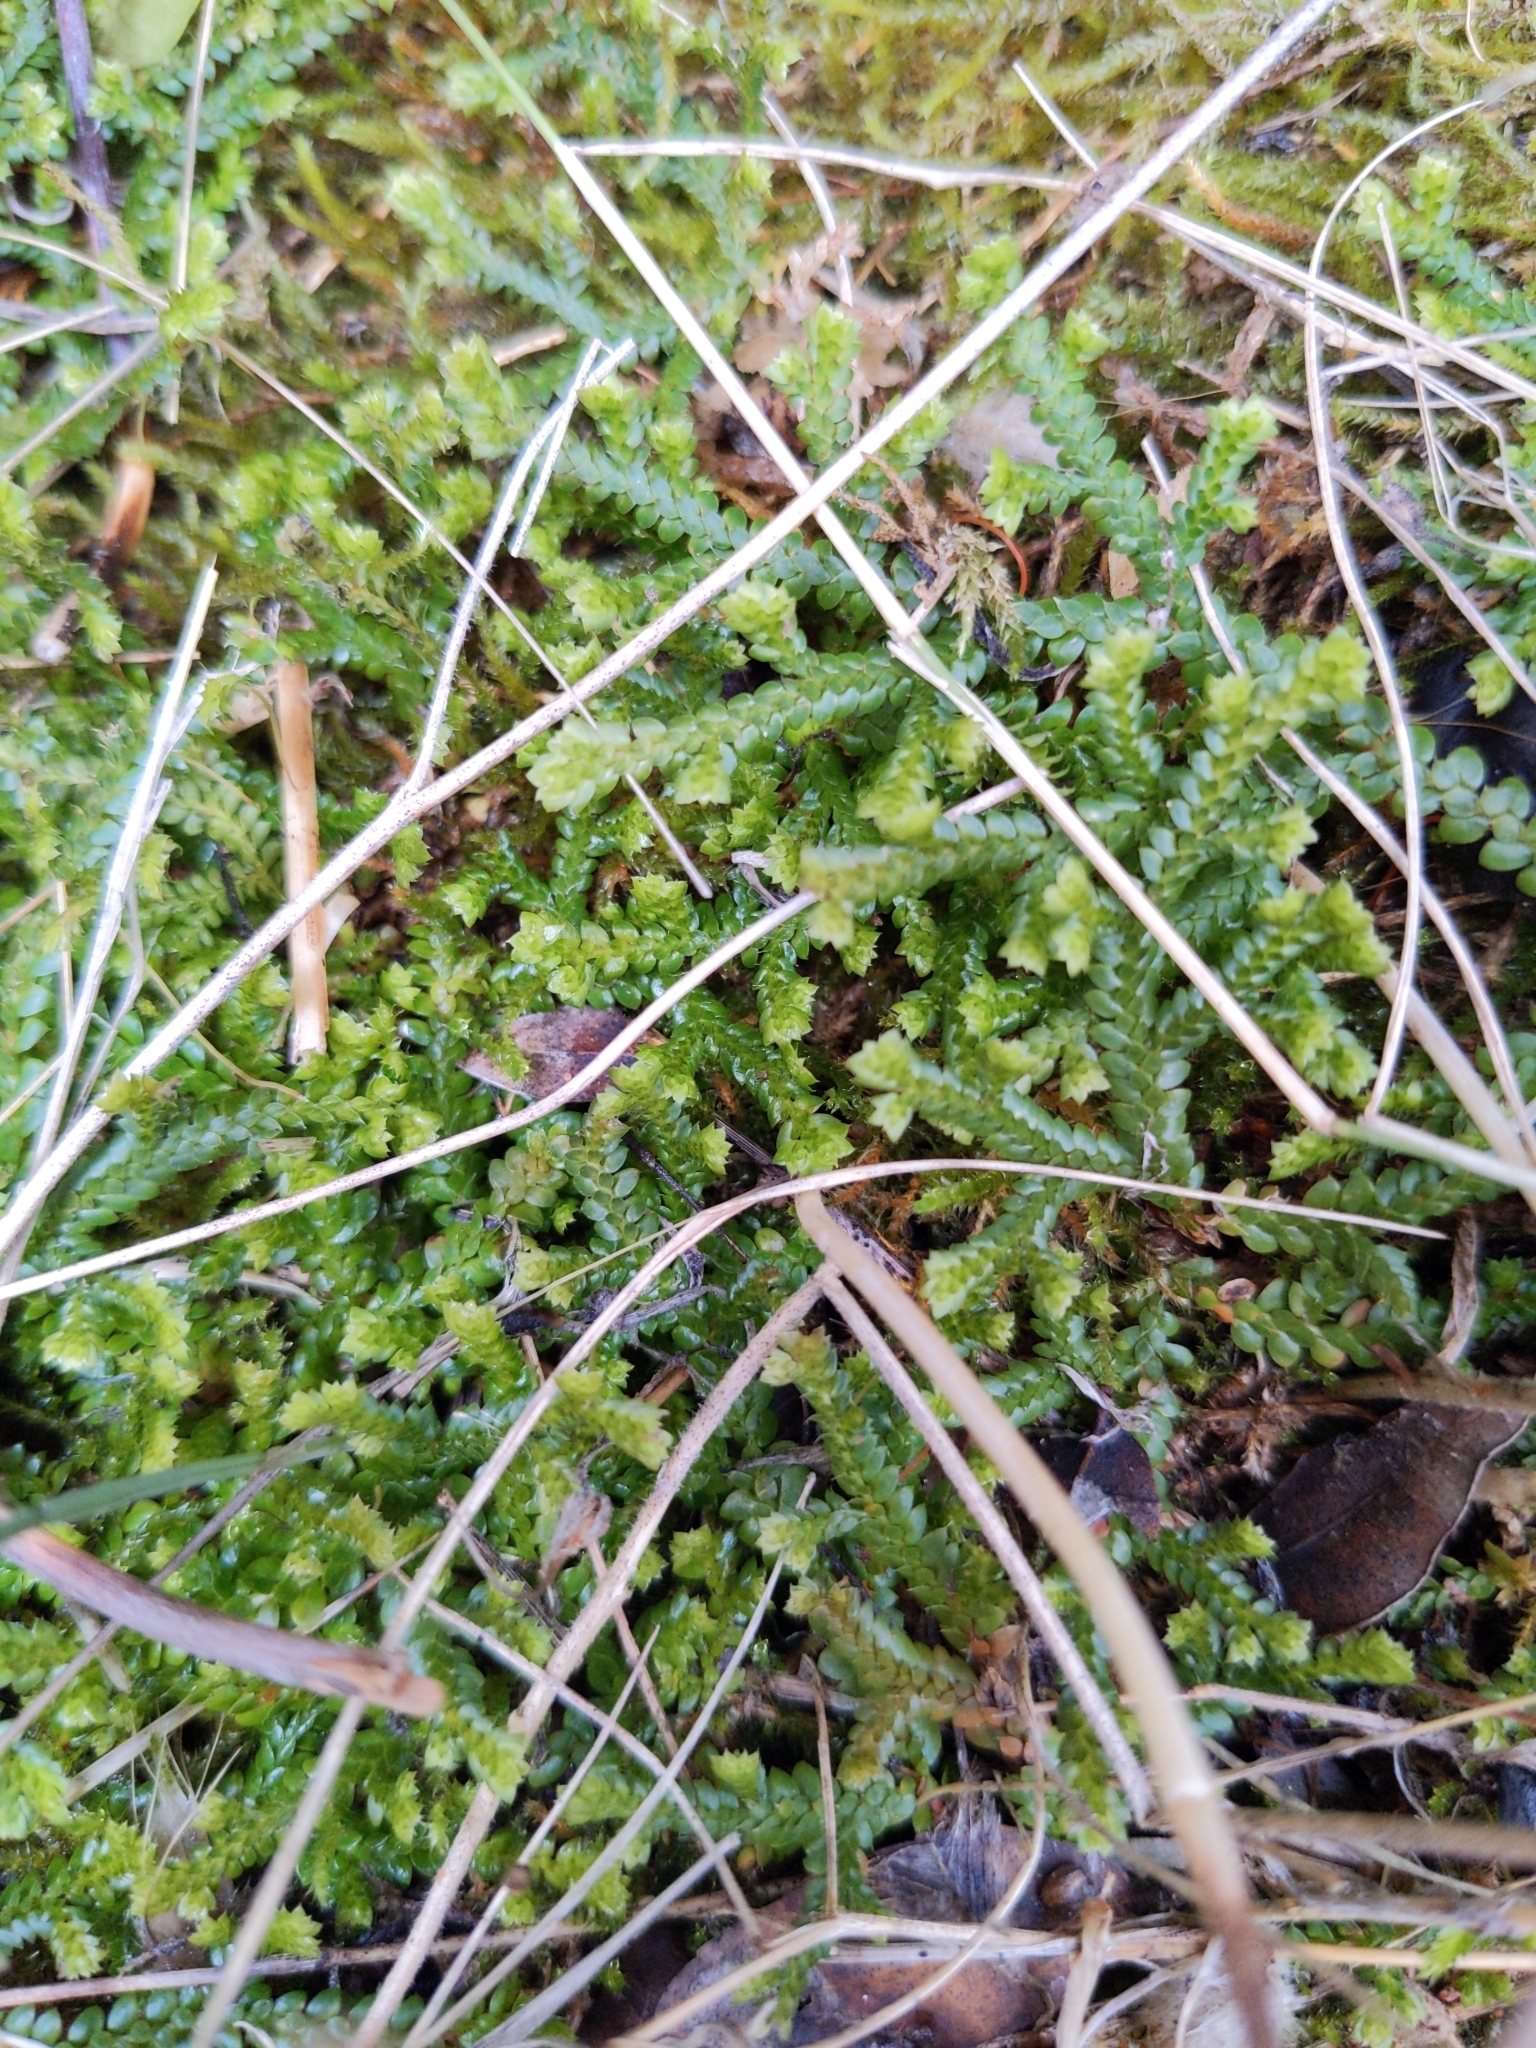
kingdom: Plantae
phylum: Tracheophyta
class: Lycopodiopsida
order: Selaginellales
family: Selaginellaceae
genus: Selaginella
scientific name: Selaginella denticulata
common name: Toothed-leaved clubmoss
